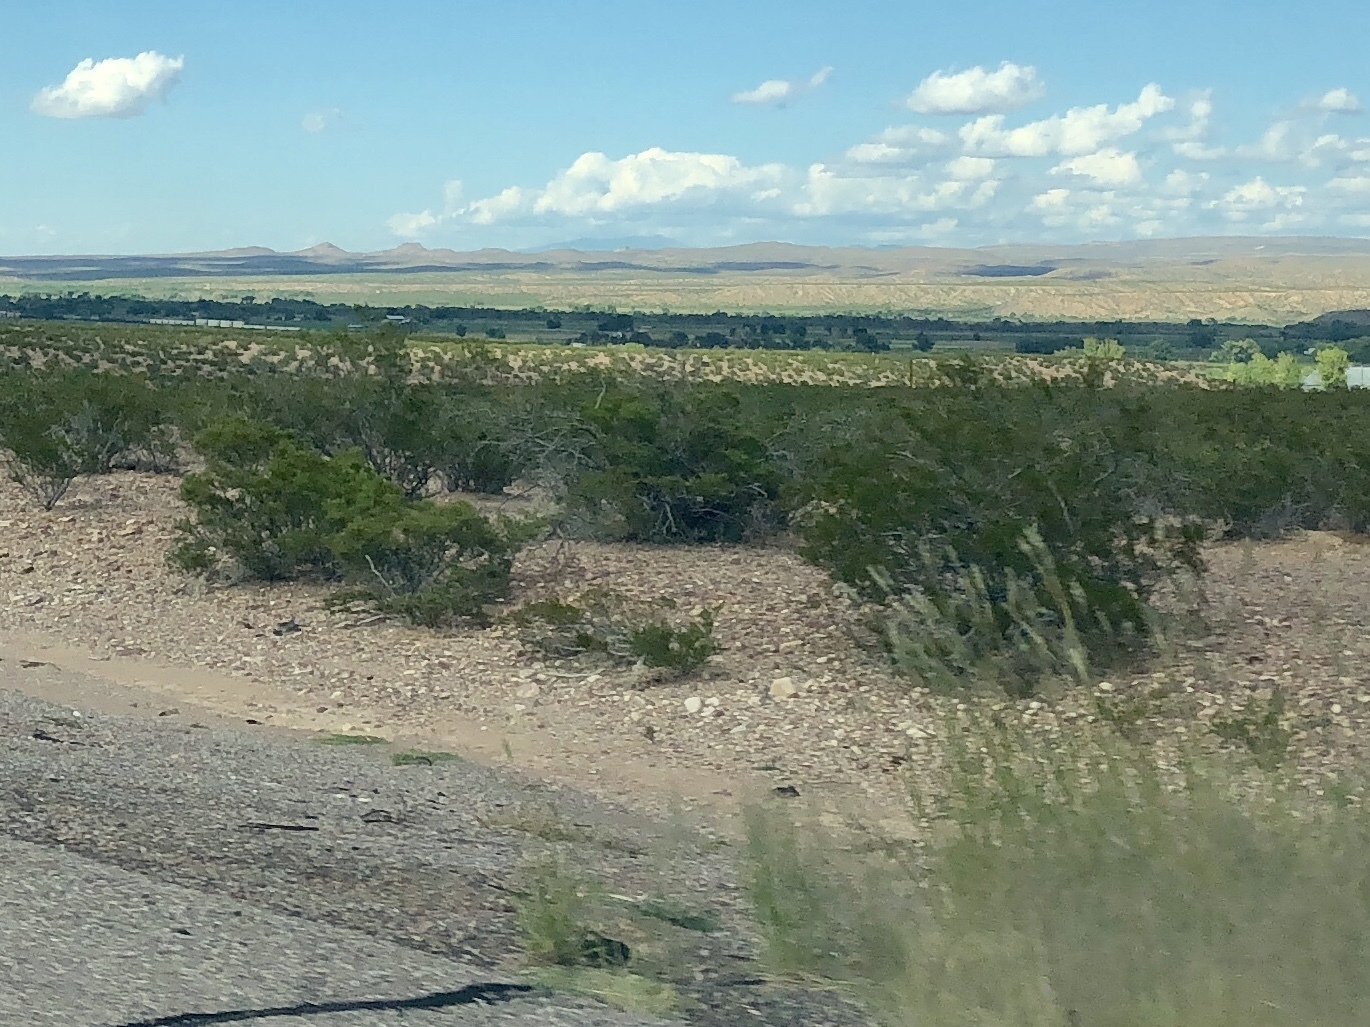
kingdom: Plantae
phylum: Tracheophyta
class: Magnoliopsida
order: Zygophyllales
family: Zygophyllaceae
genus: Larrea
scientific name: Larrea tridentata
